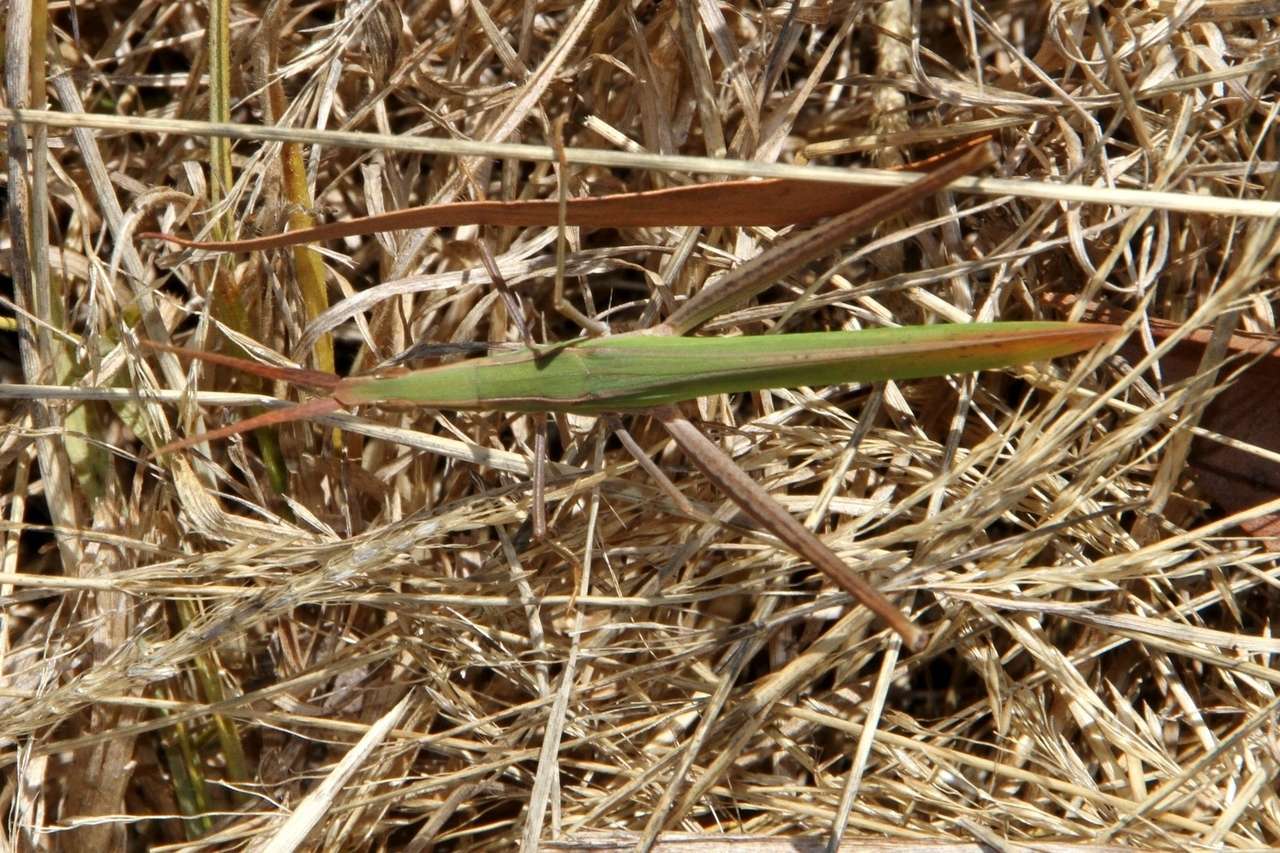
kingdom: Animalia
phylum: Arthropoda
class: Insecta
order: Orthoptera
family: Acrididae
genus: Acrida
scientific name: Acrida conica
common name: Giant green slantface
